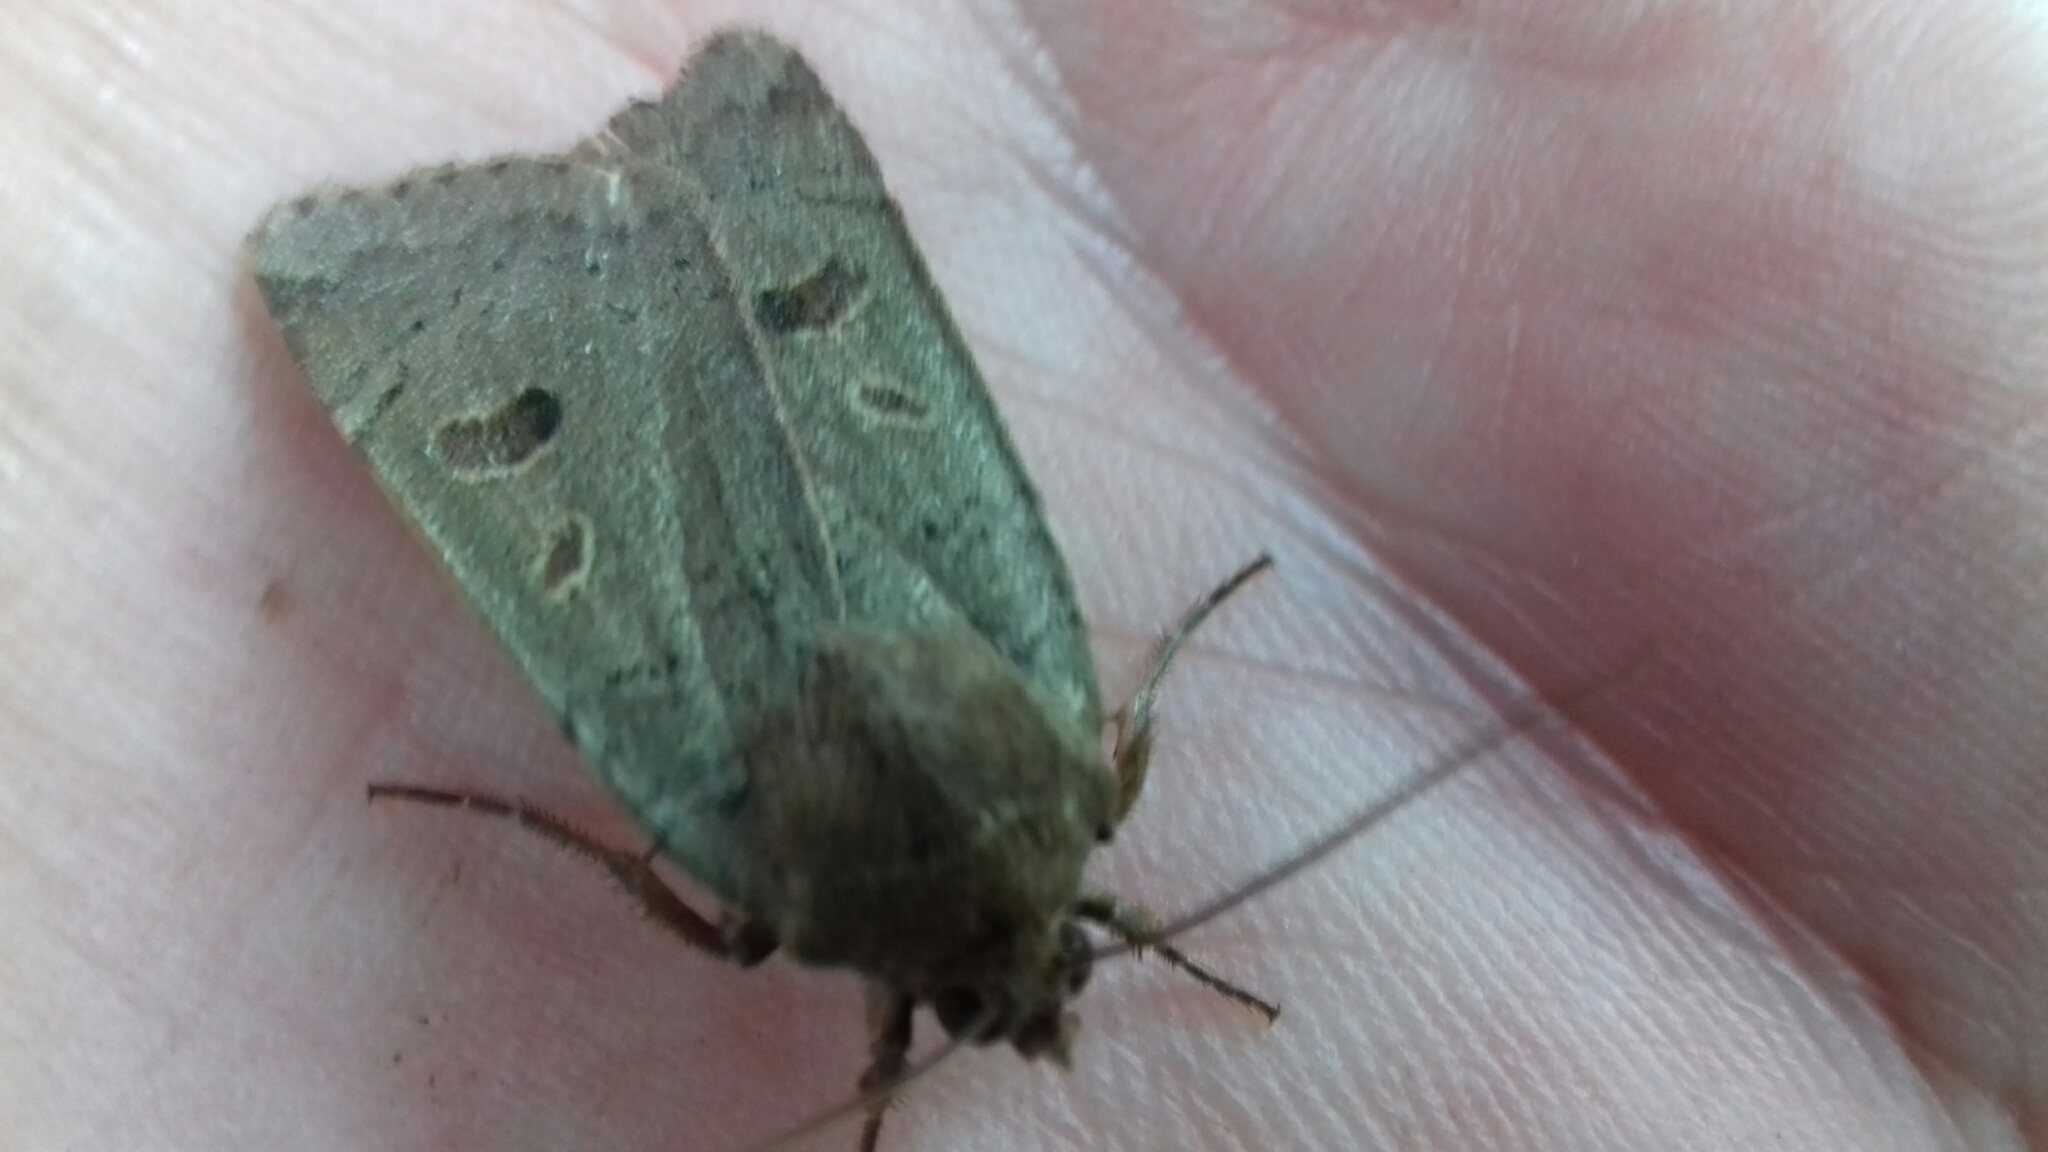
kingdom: Animalia
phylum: Arthropoda
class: Insecta
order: Lepidoptera
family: Noctuidae
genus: Noctua
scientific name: Noctua comes
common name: Lesser yellow underwing
